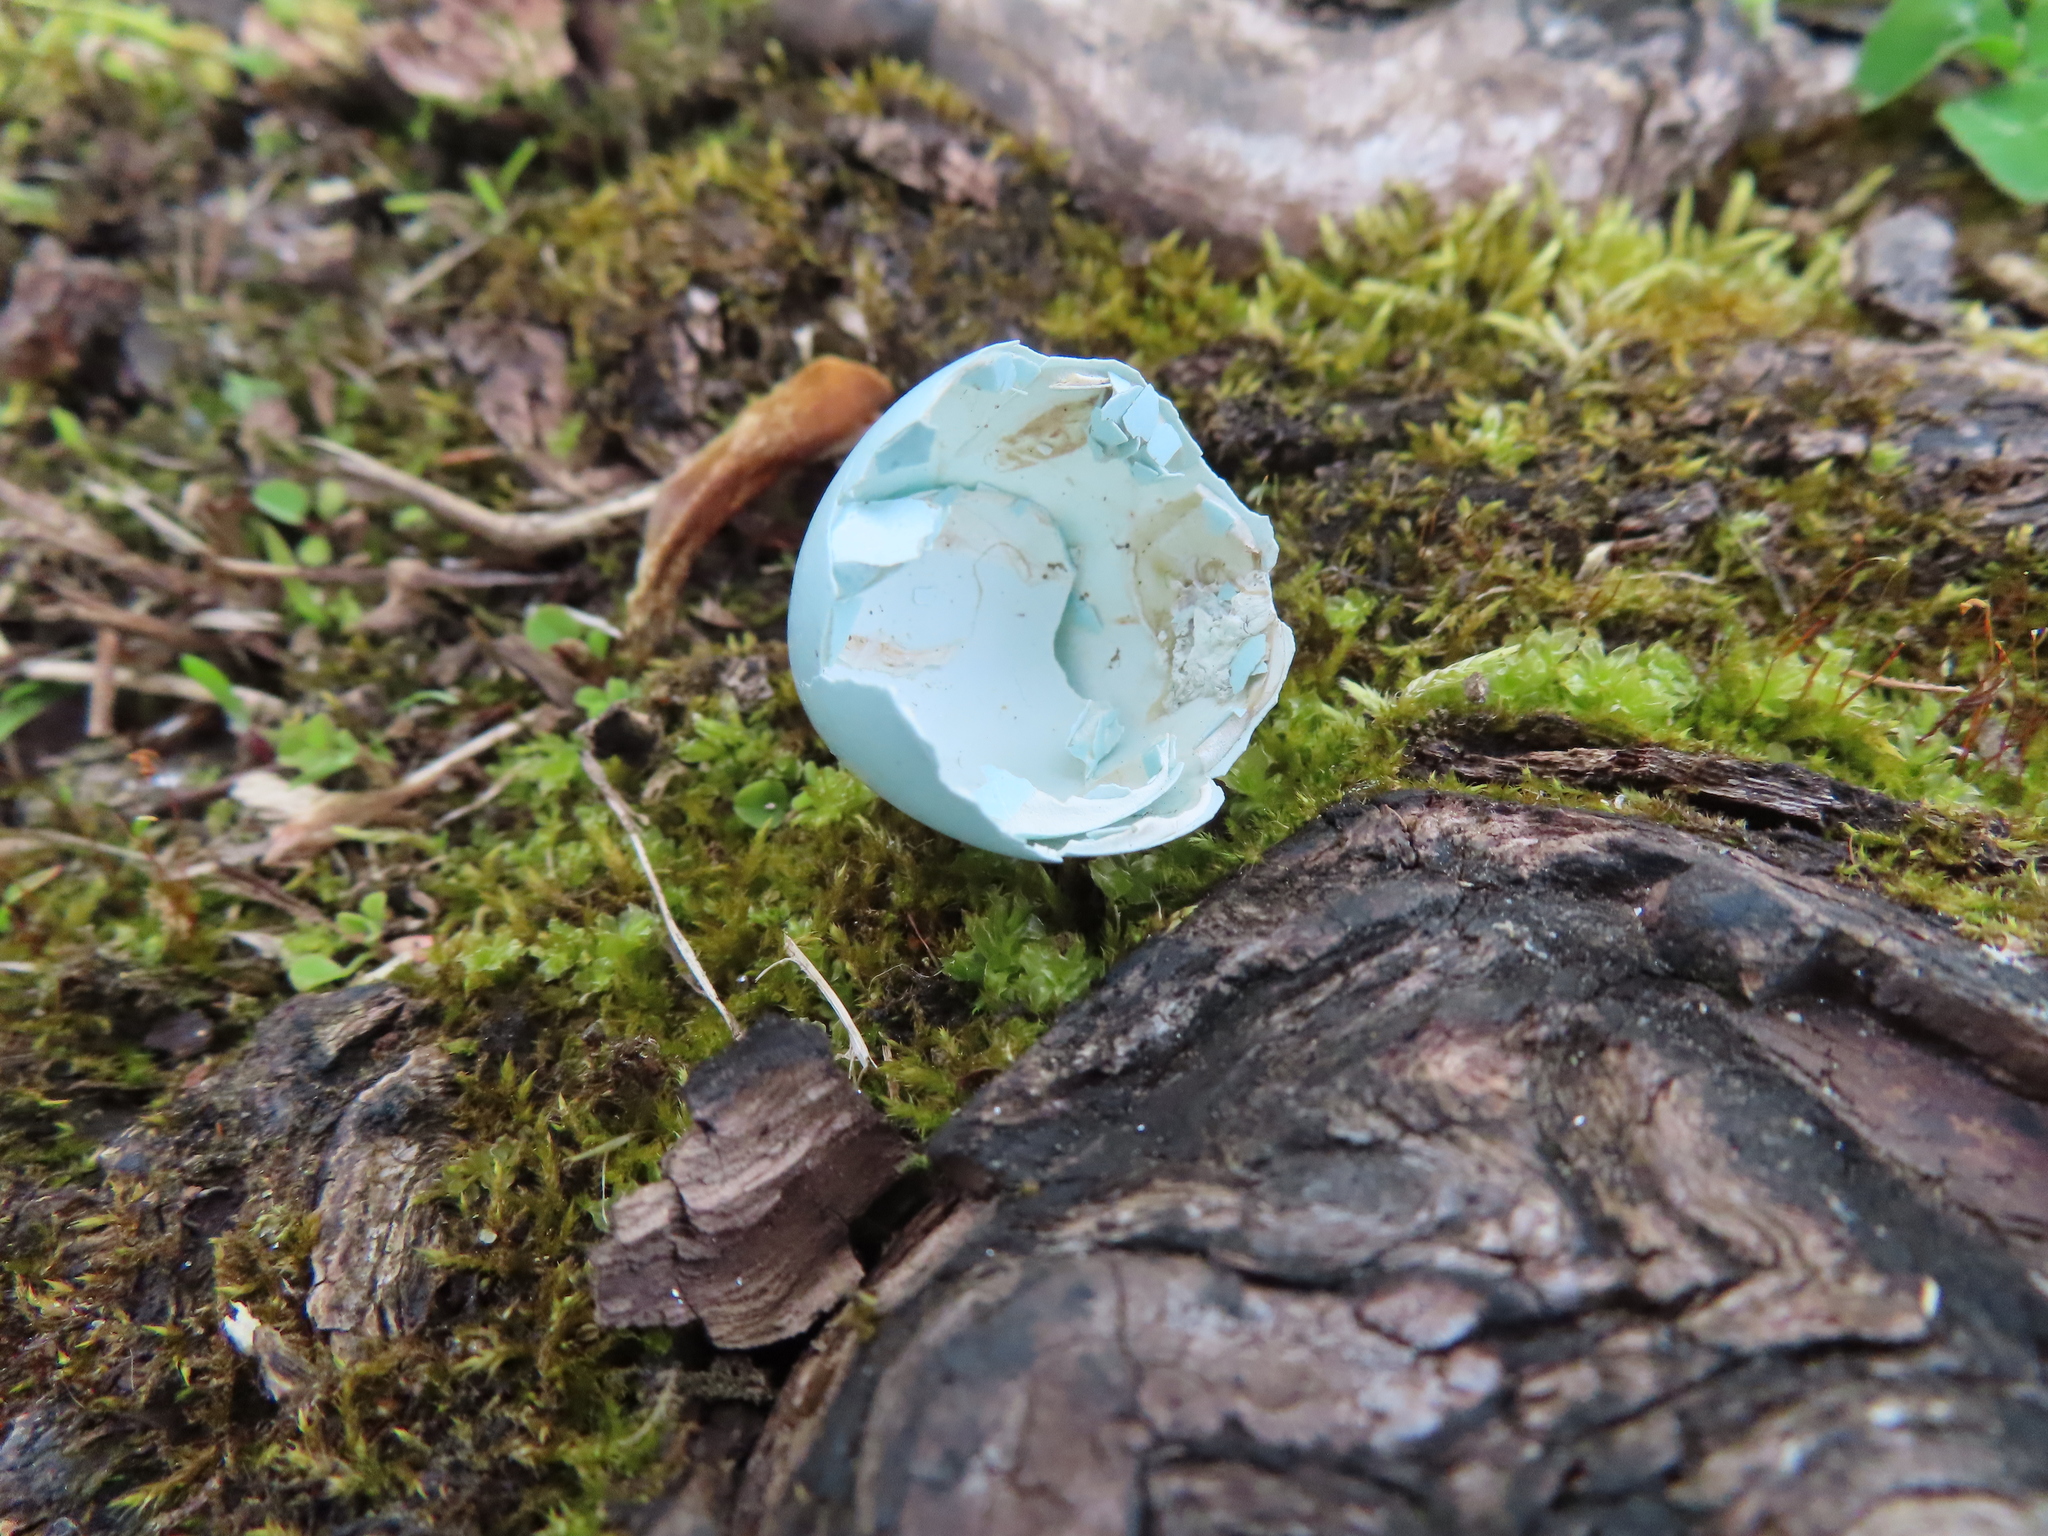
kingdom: Animalia
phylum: Chordata
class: Aves
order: Passeriformes
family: Sturnidae
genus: Sturnus
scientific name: Sturnus vulgaris
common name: Common starling
